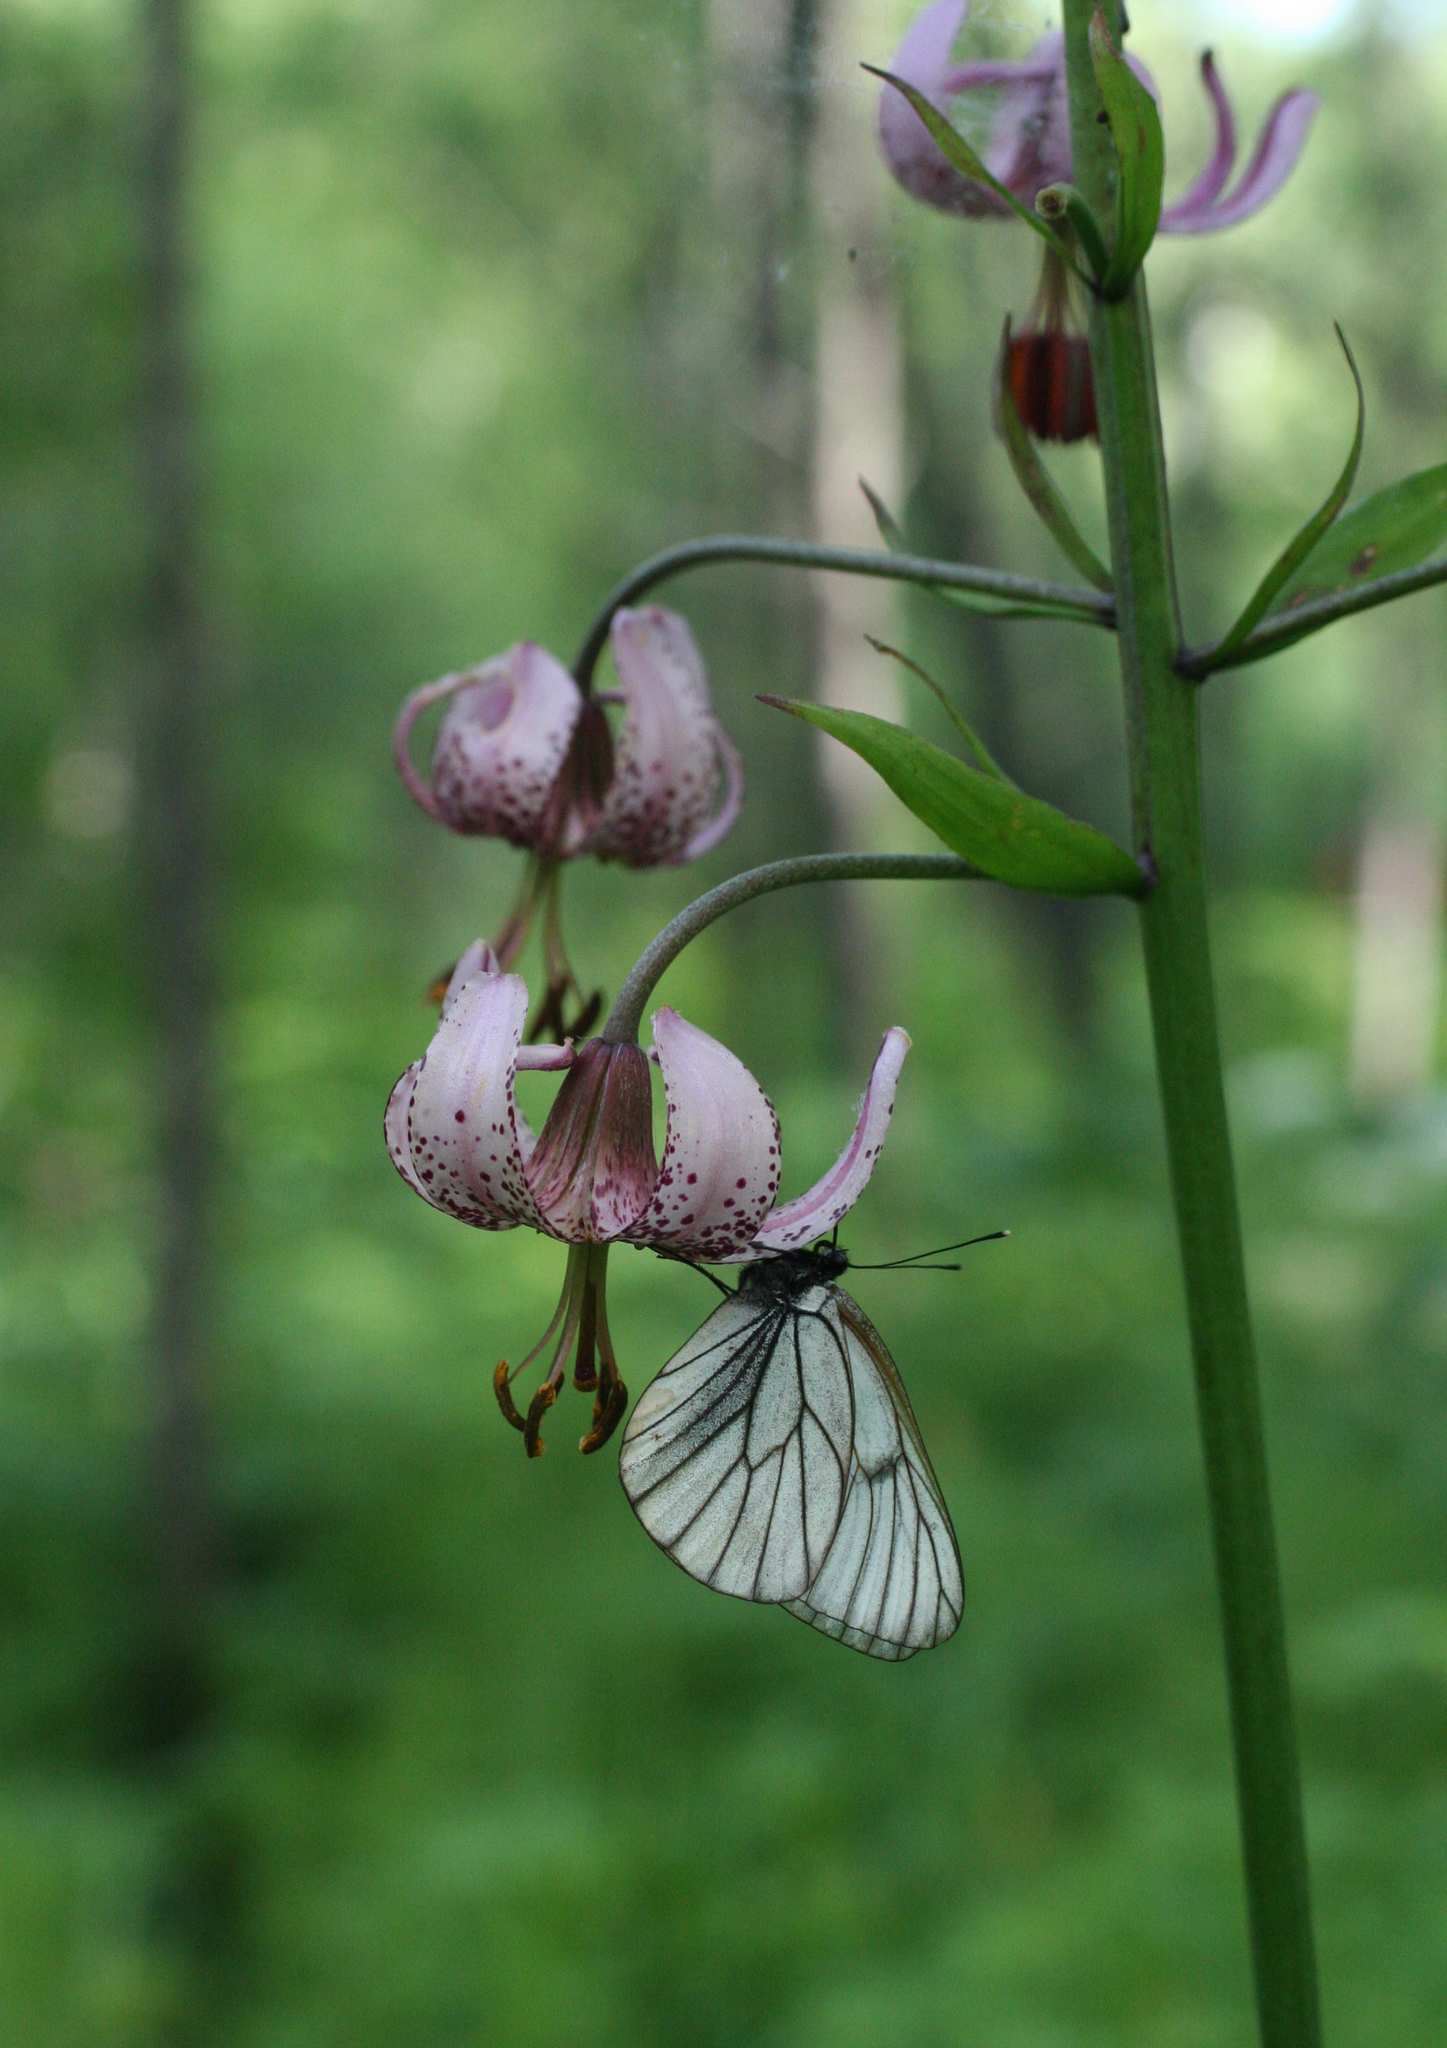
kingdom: Animalia
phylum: Arthropoda
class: Insecta
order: Lepidoptera
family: Pieridae
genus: Aporia
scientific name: Aporia crataegi
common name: Black-veined white
